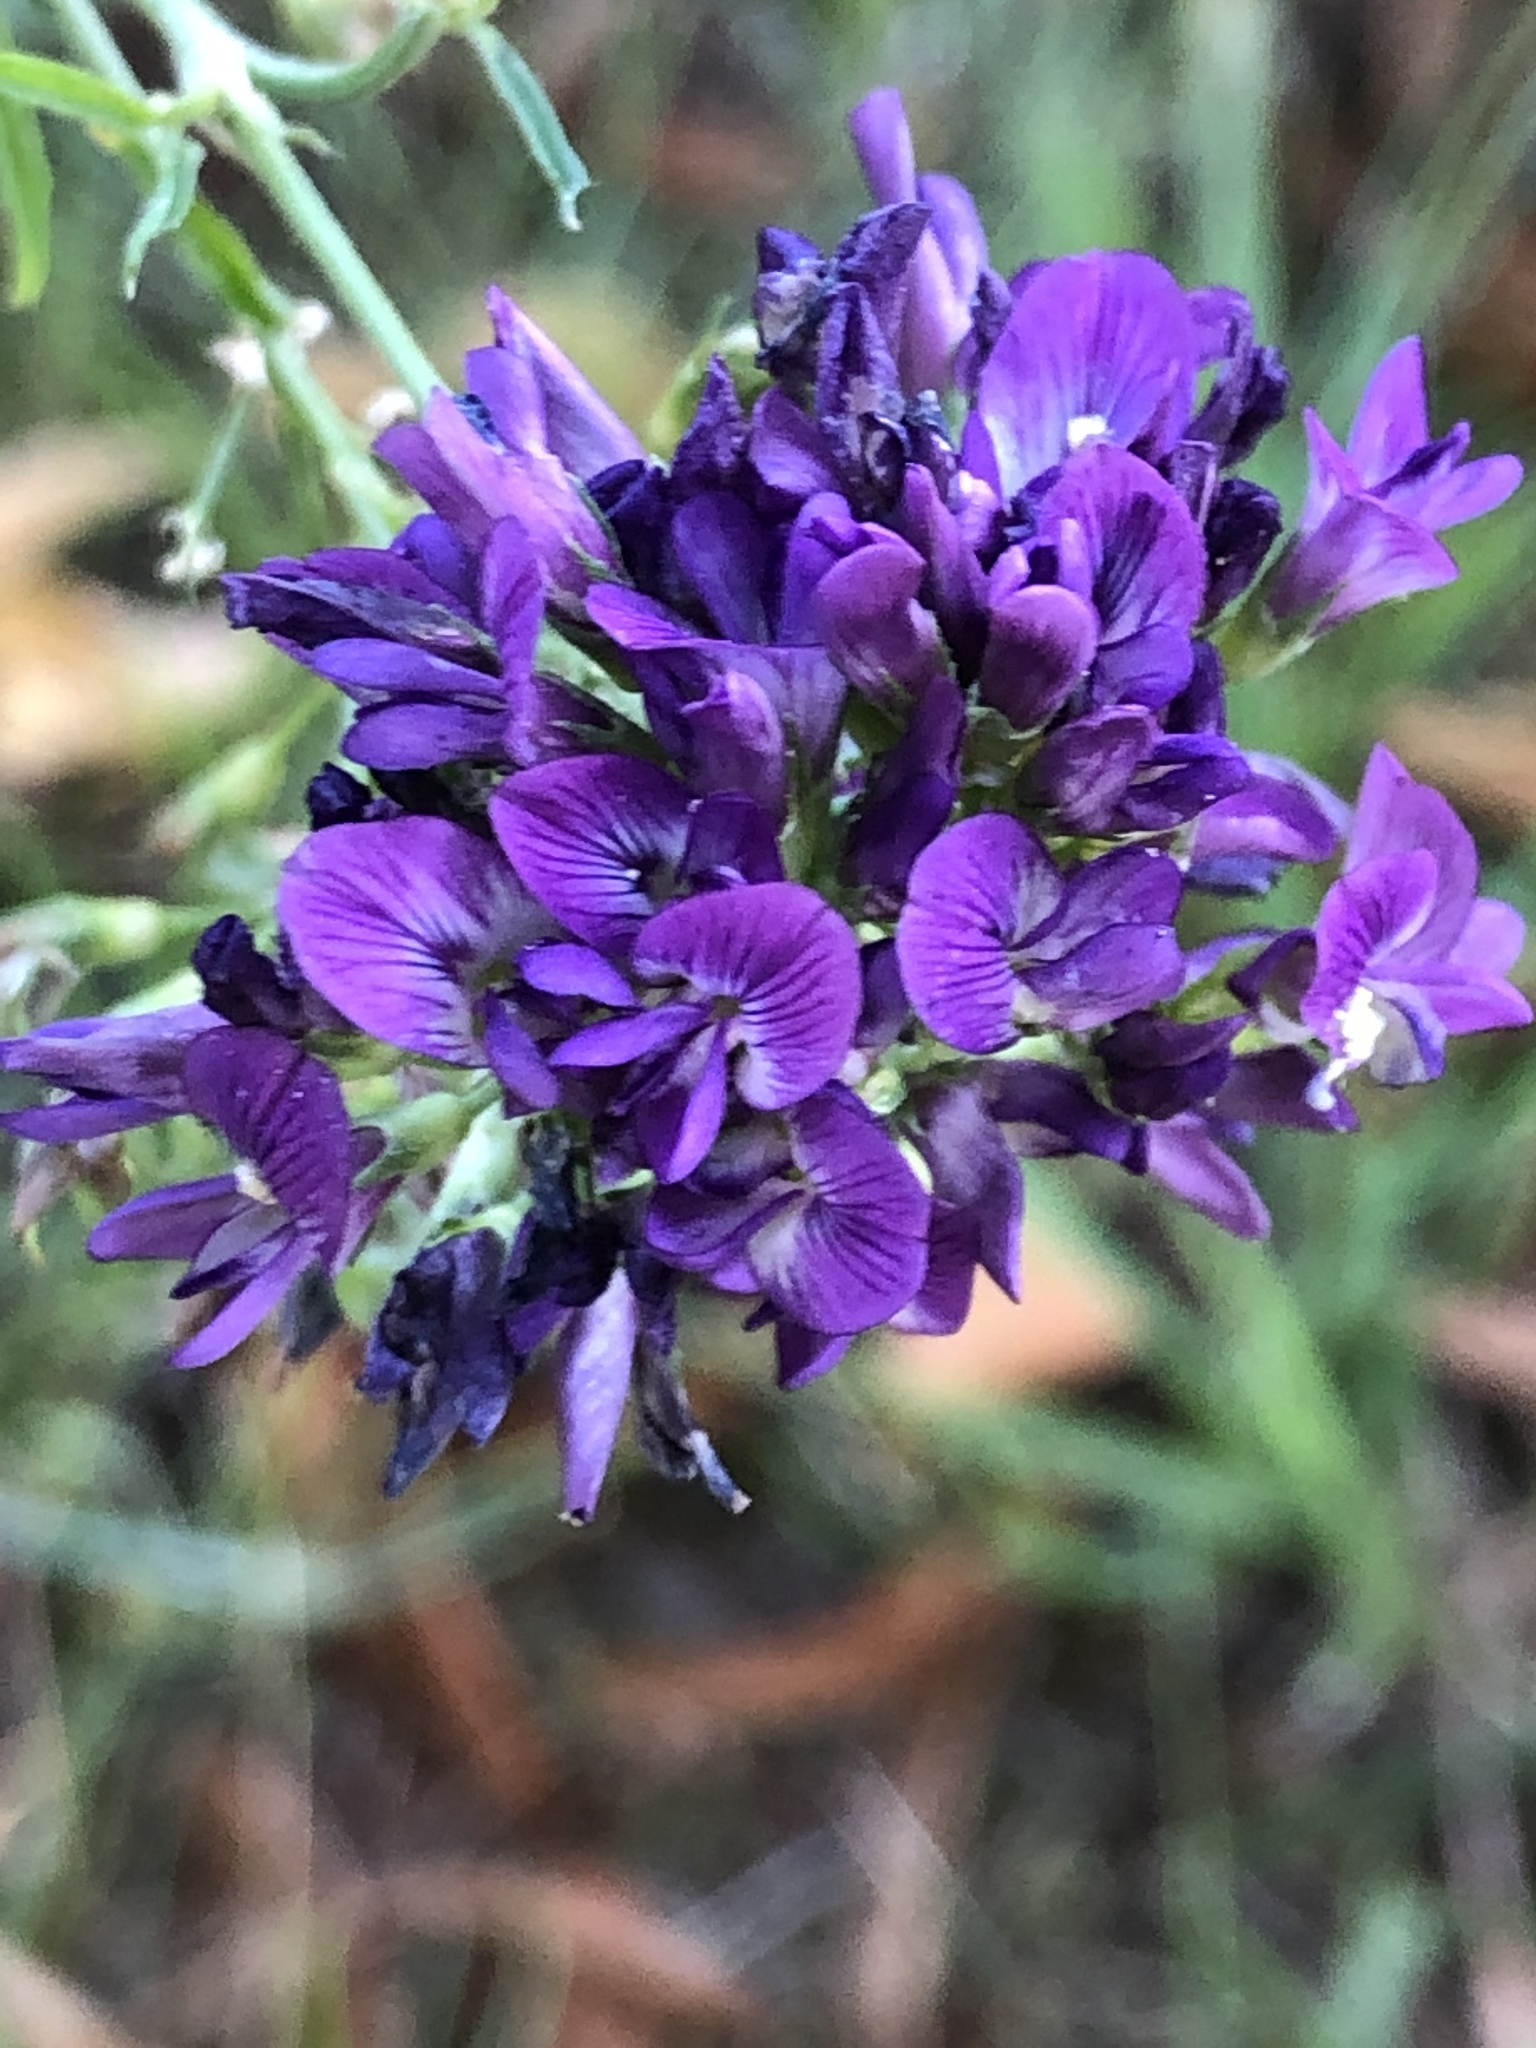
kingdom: Plantae
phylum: Tracheophyta
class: Magnoliopsida
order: Fabales
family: Fabaceae
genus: Medicago
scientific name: Medicago sativa
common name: Alfalfa
